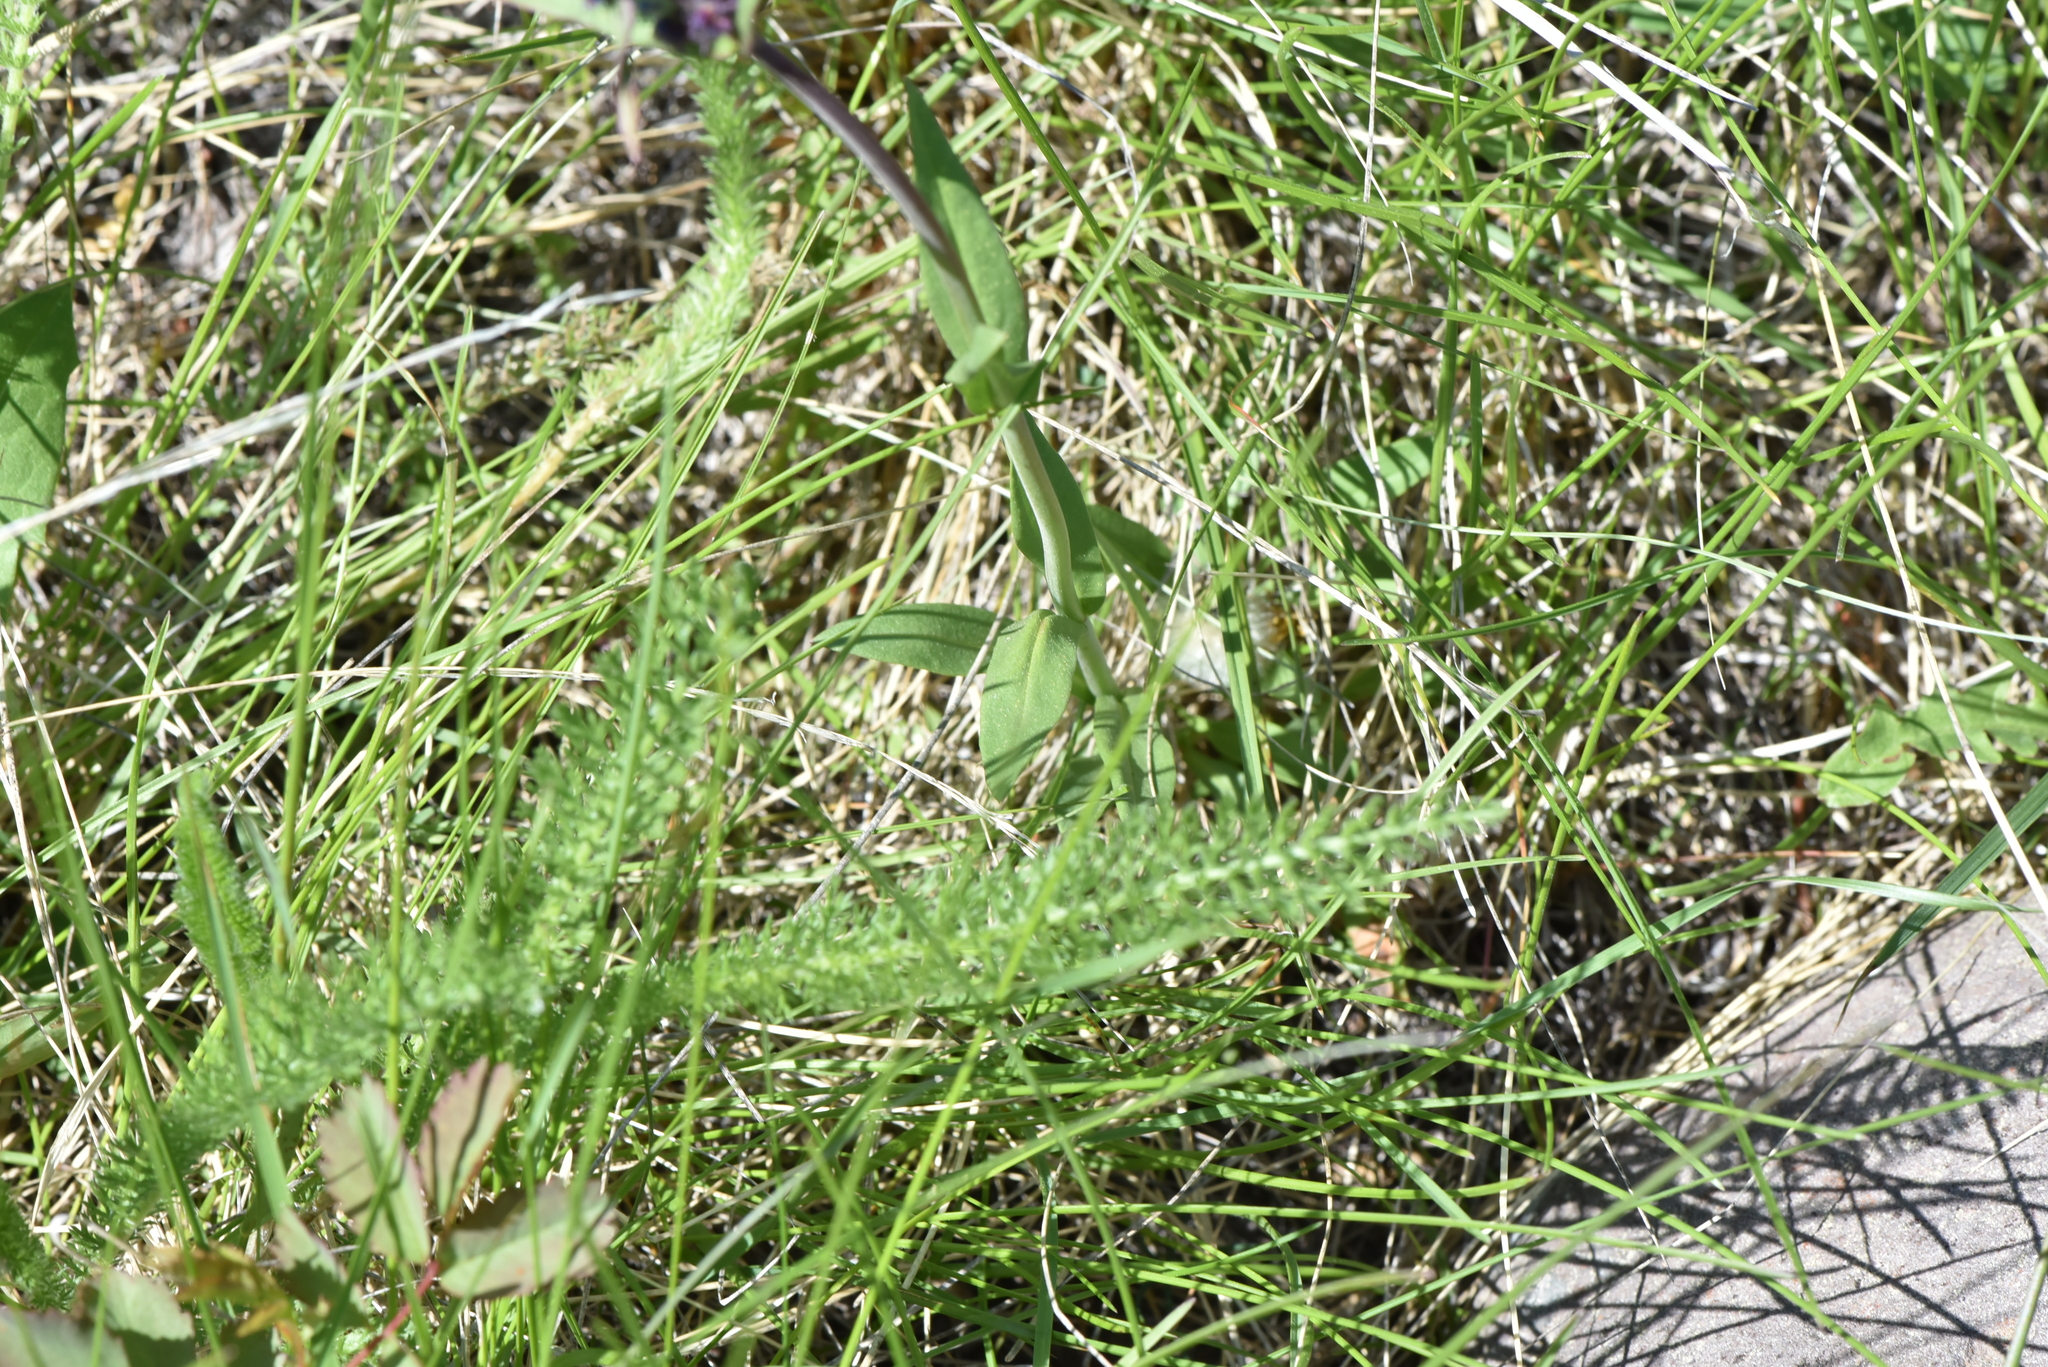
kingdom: Plantae
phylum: Tracheophyta
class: Magnoliopsida
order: Lamiales
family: Plantaginaceae
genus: Penstemon
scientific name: Penstemon procerus
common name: Small-flower penstemon
